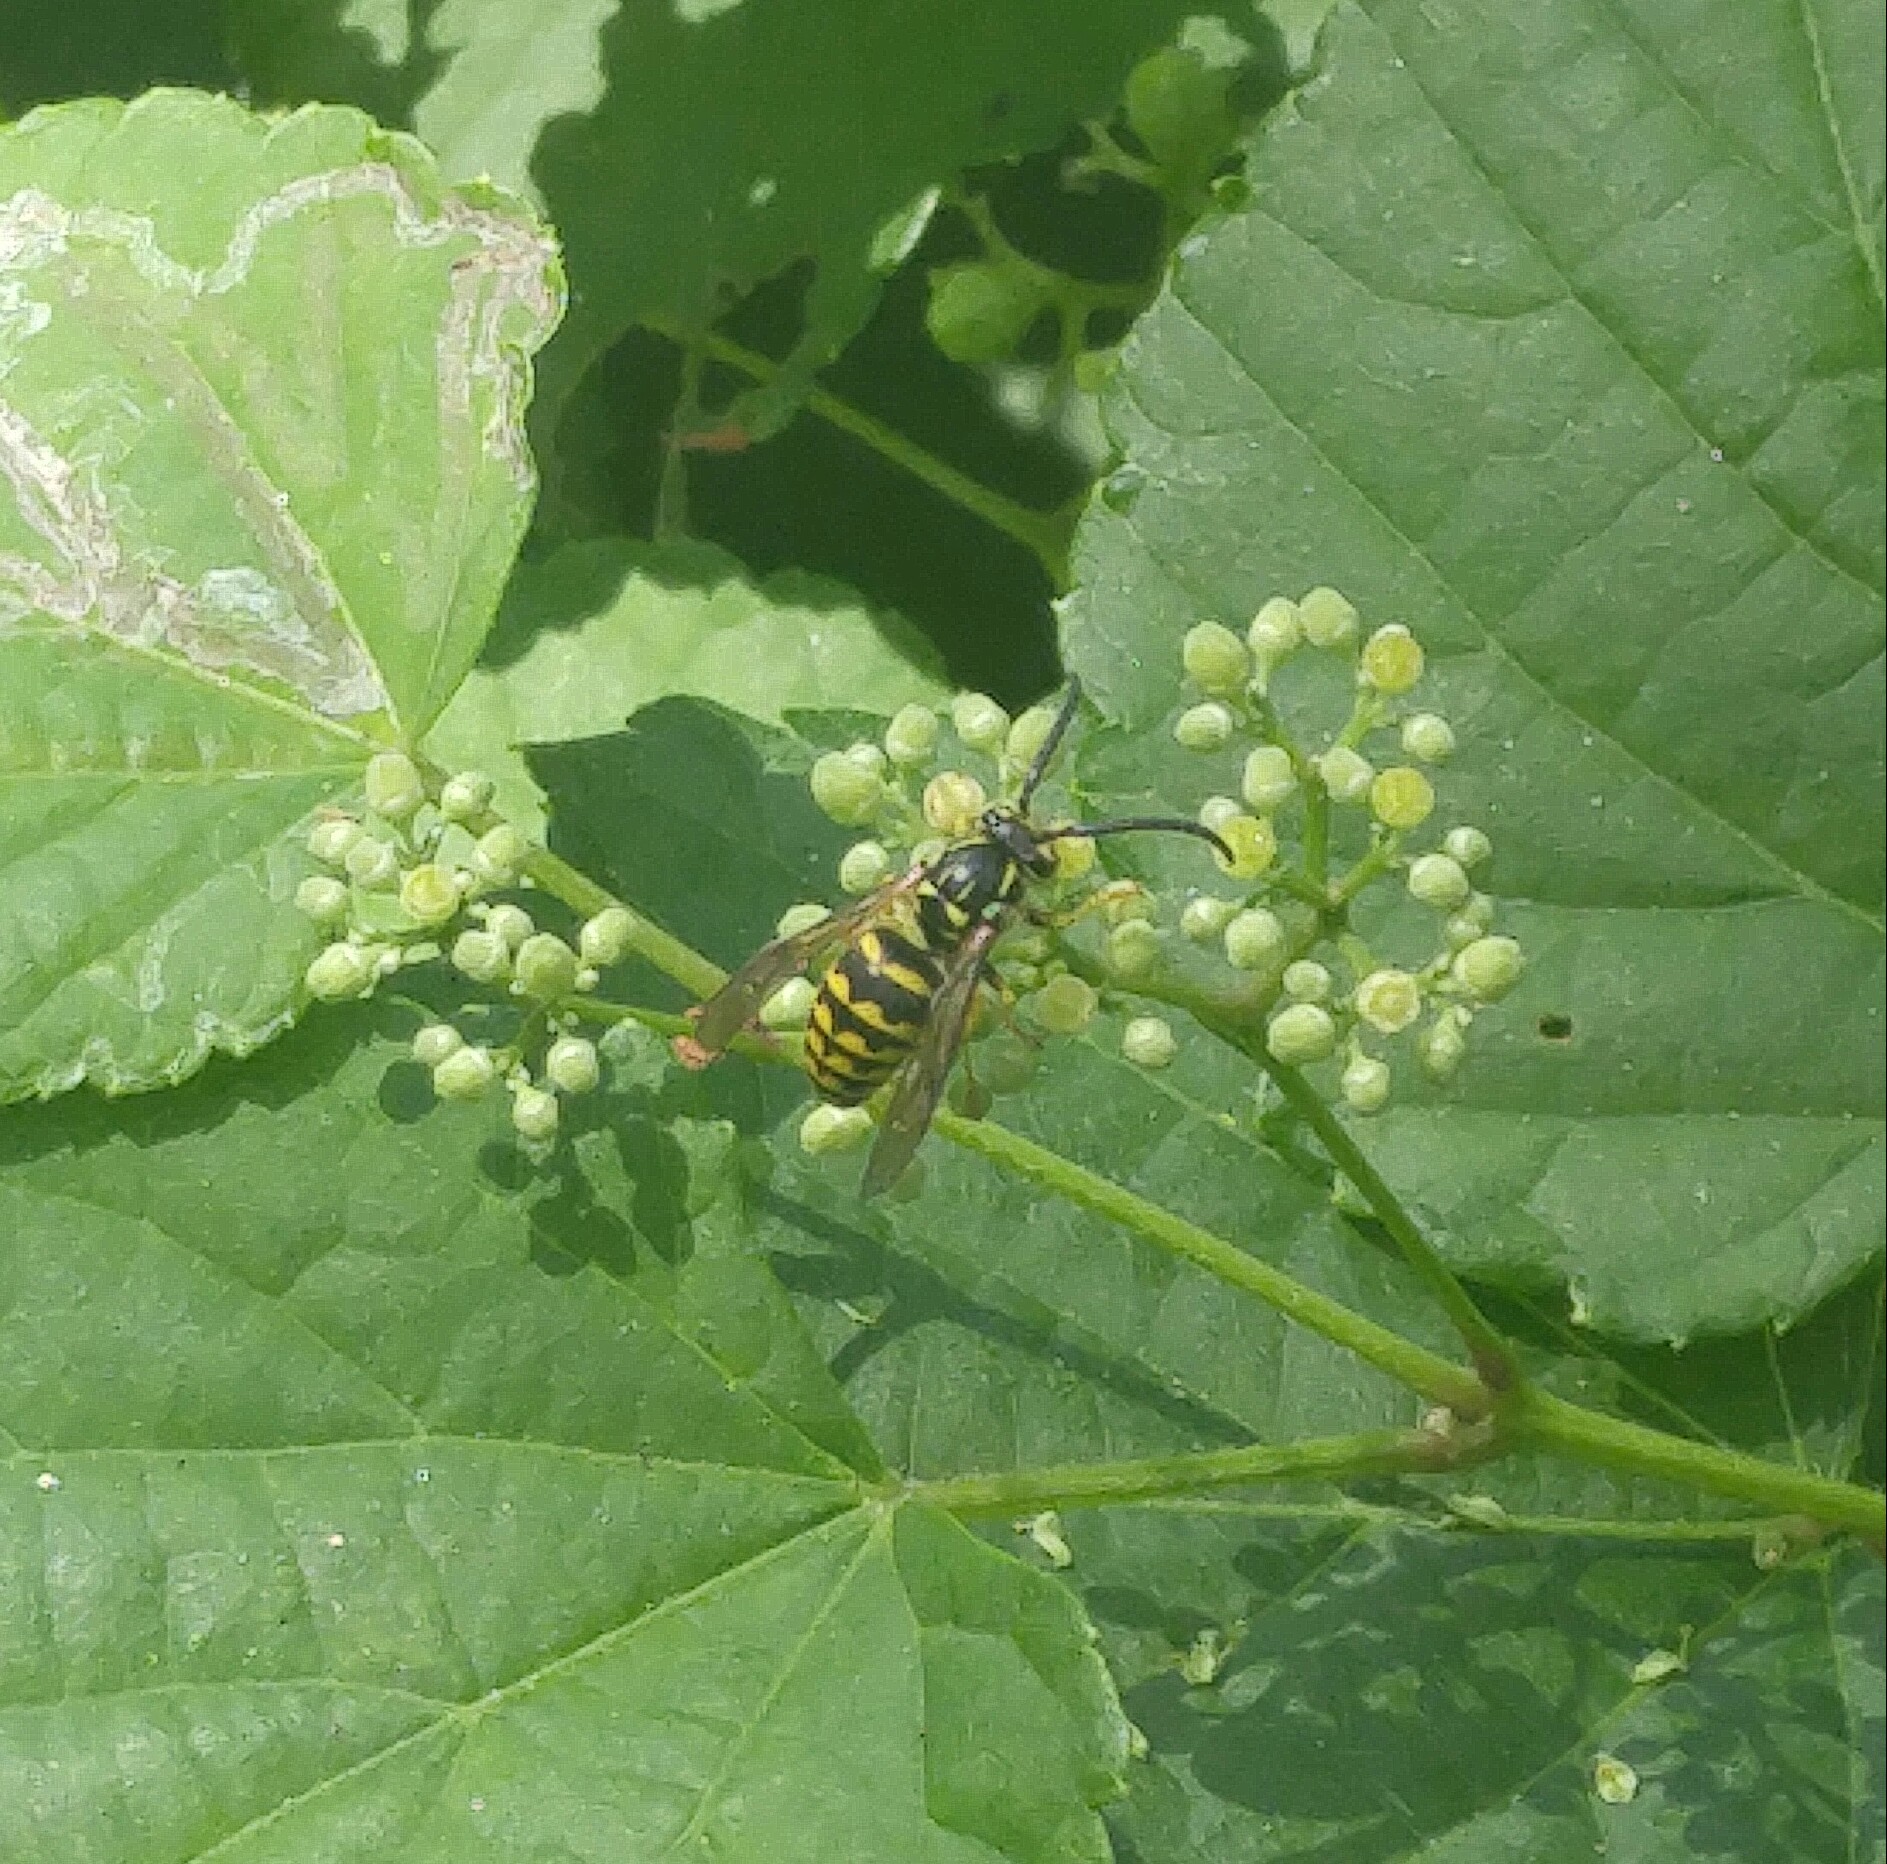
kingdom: Animalia
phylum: Arthropoda
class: Insecta
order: Hymenoptera
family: Vespidae
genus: Dolichovespula
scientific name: Dolichovespula arenaria
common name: Aerial yellowjacket
